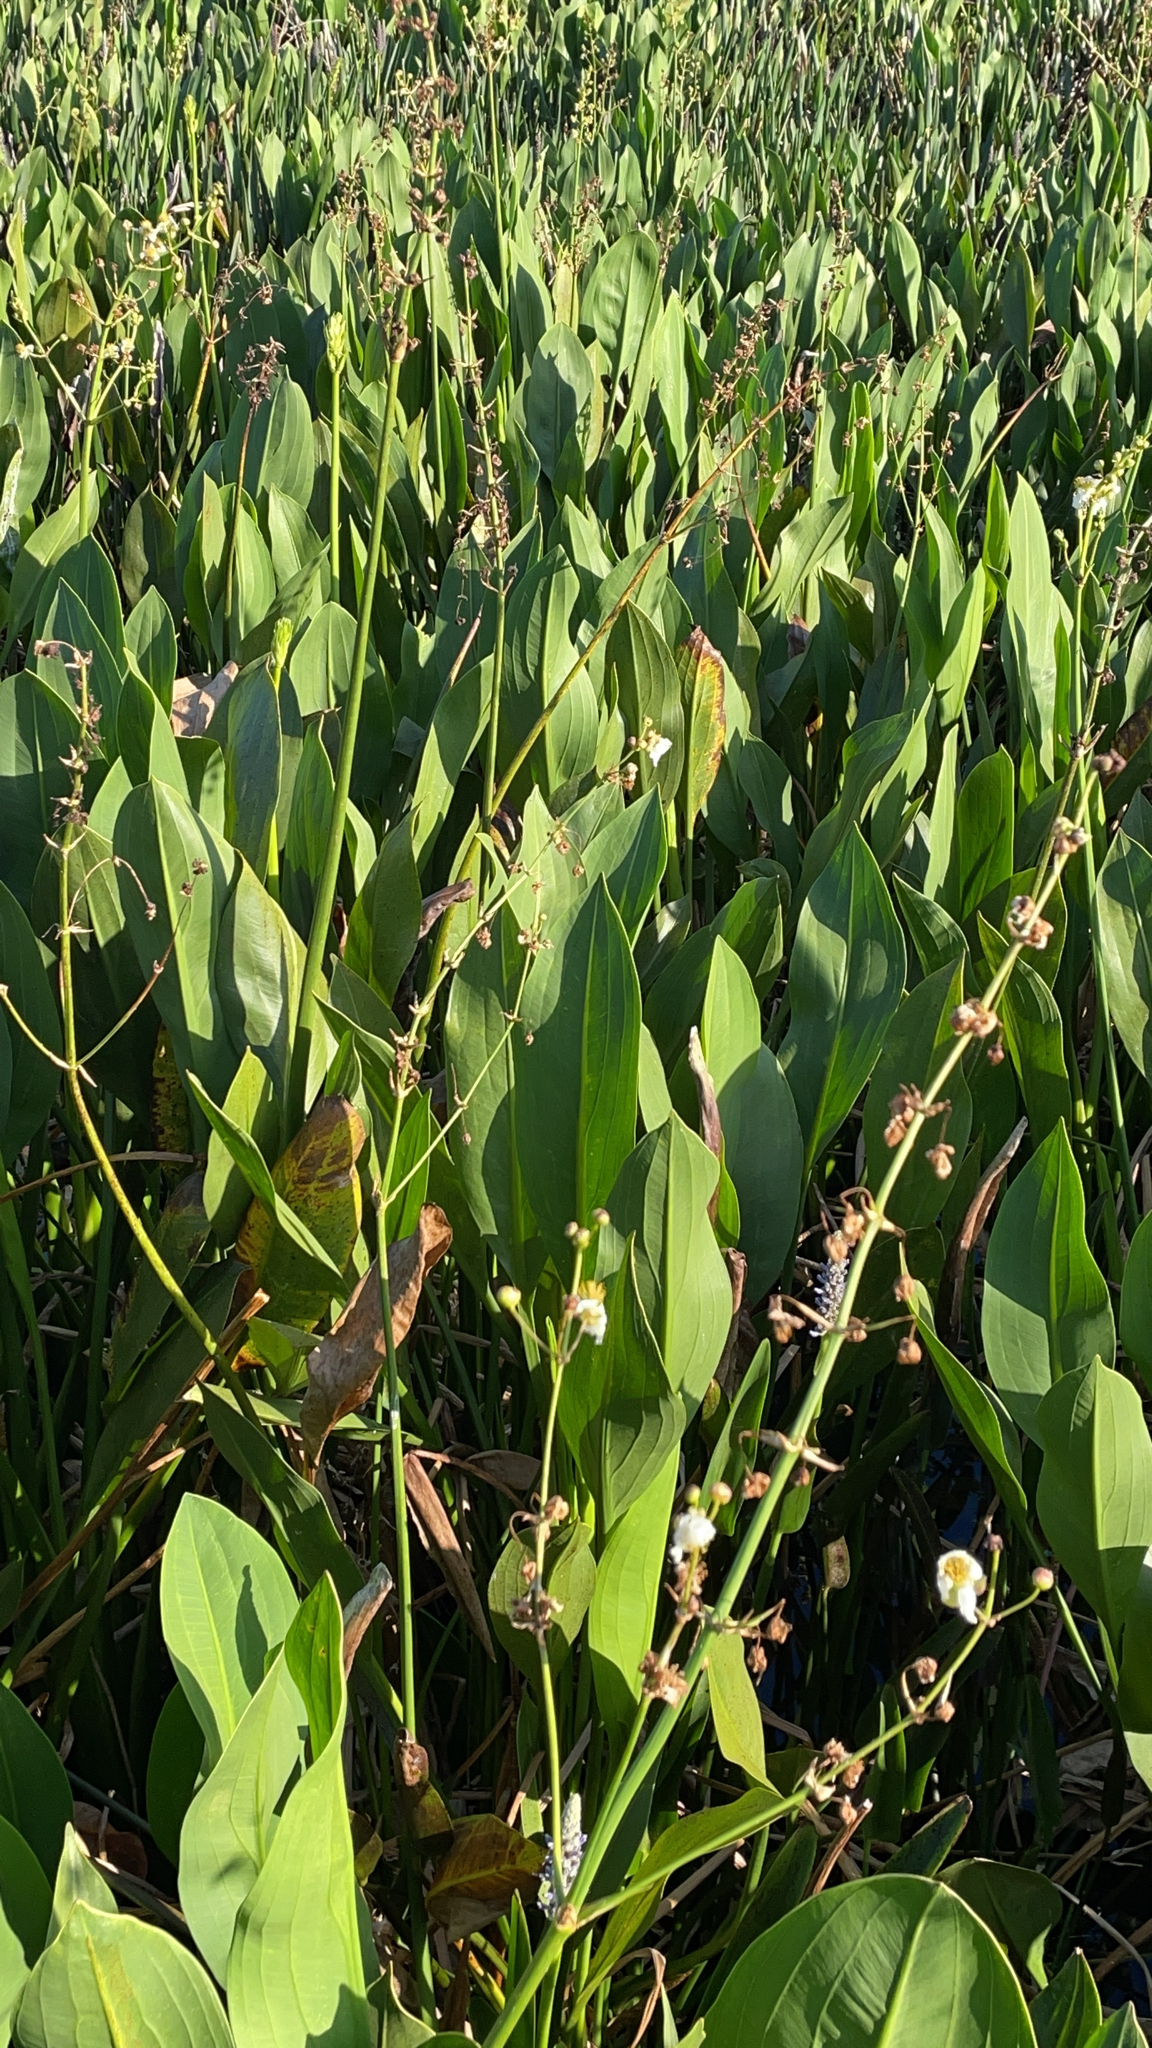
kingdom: Plantae
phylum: Tracheophyta
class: Liliopsida
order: Alismatales
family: Alismataceae
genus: Sagittaria
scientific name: Sagittaria lancifolia
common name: Lance-leaf arrowhead
